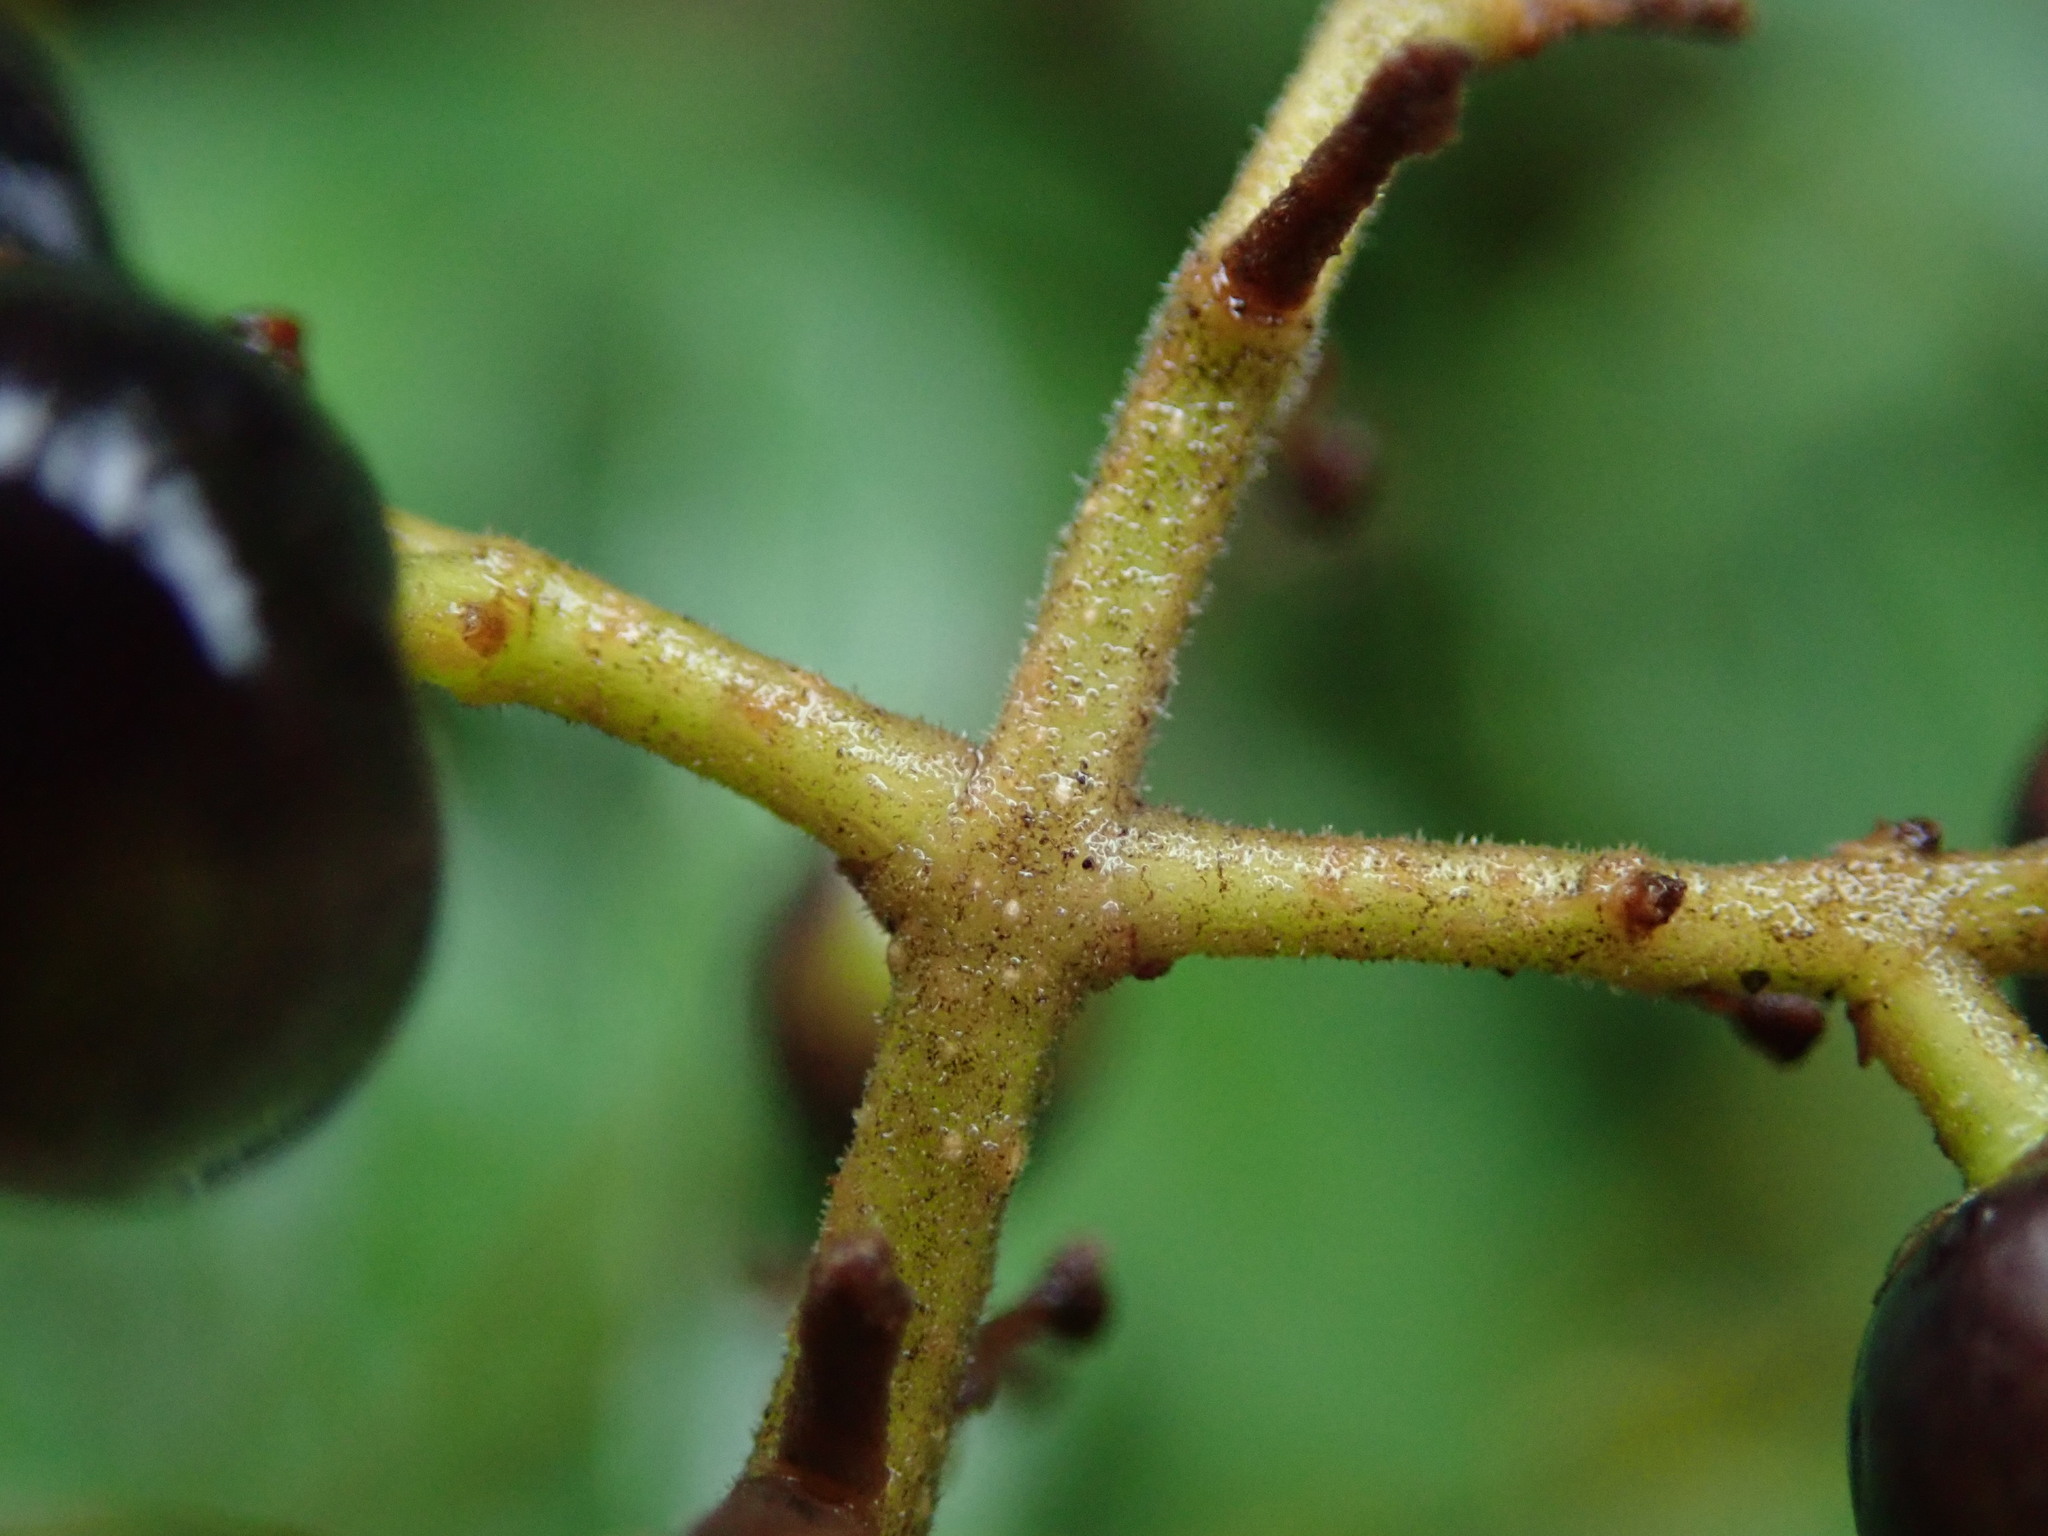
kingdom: Plantae
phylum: Tracheophyta
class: Magnoliopsida
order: Lamiales
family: Oleaceae
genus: Ligustrum
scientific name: Ligustrum vulgare
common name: Wild privet
